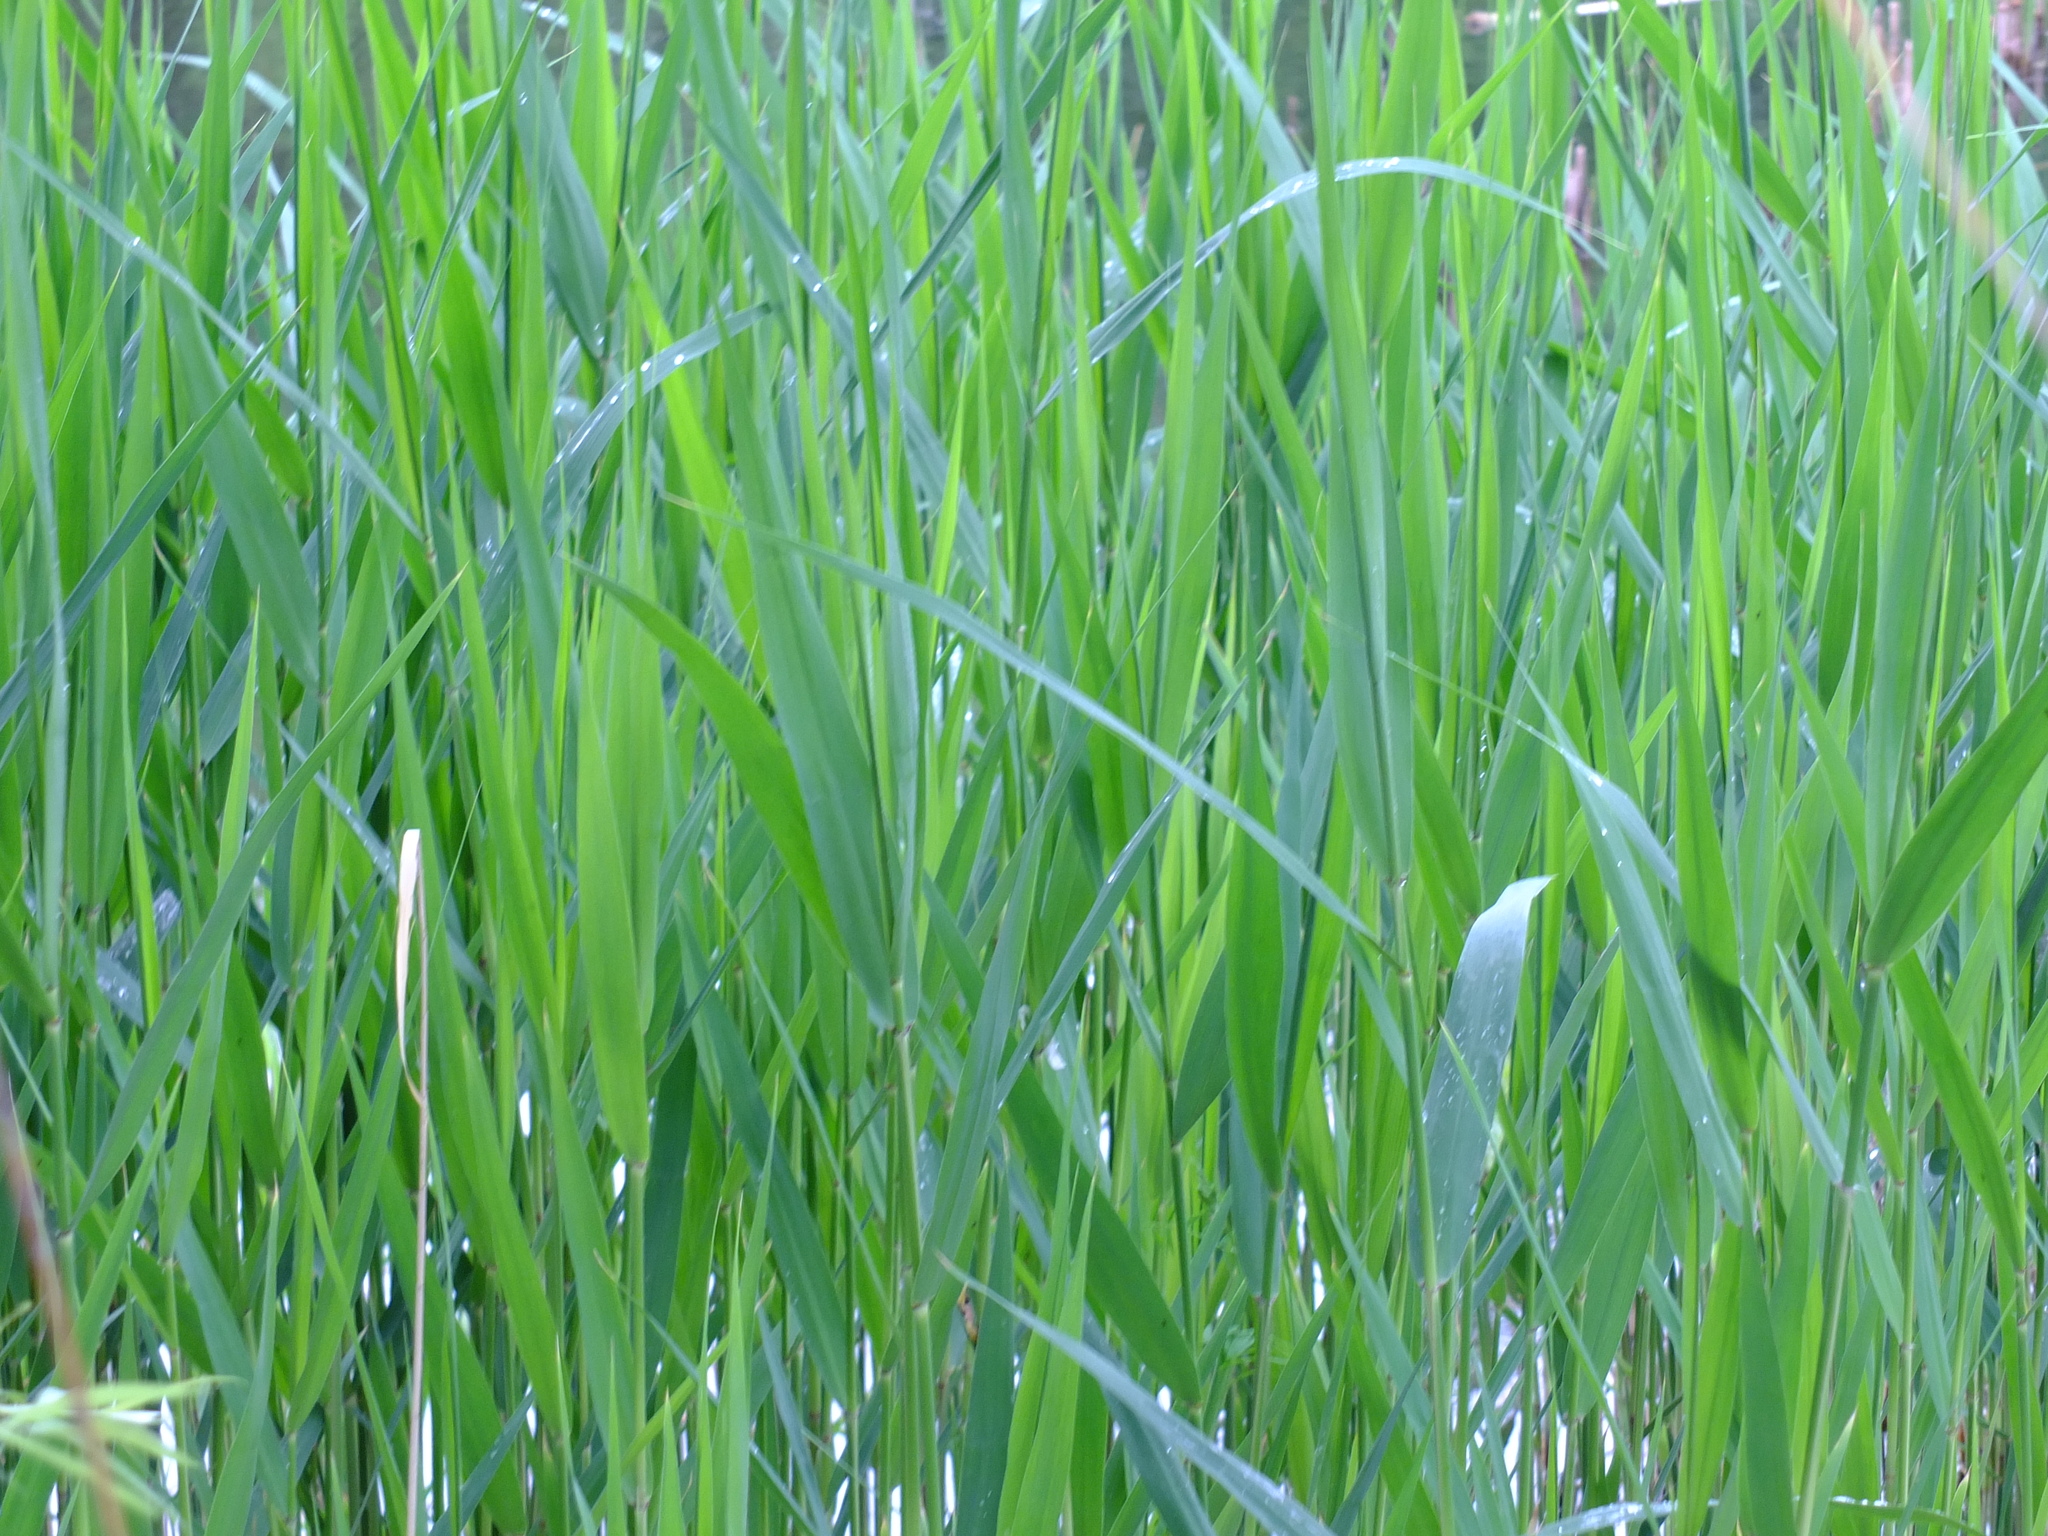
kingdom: Plantae
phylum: Tracheophyta
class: Liliopsida
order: Poales
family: Poaceae
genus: Phragmites
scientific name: Phragmites australis
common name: Common reed
